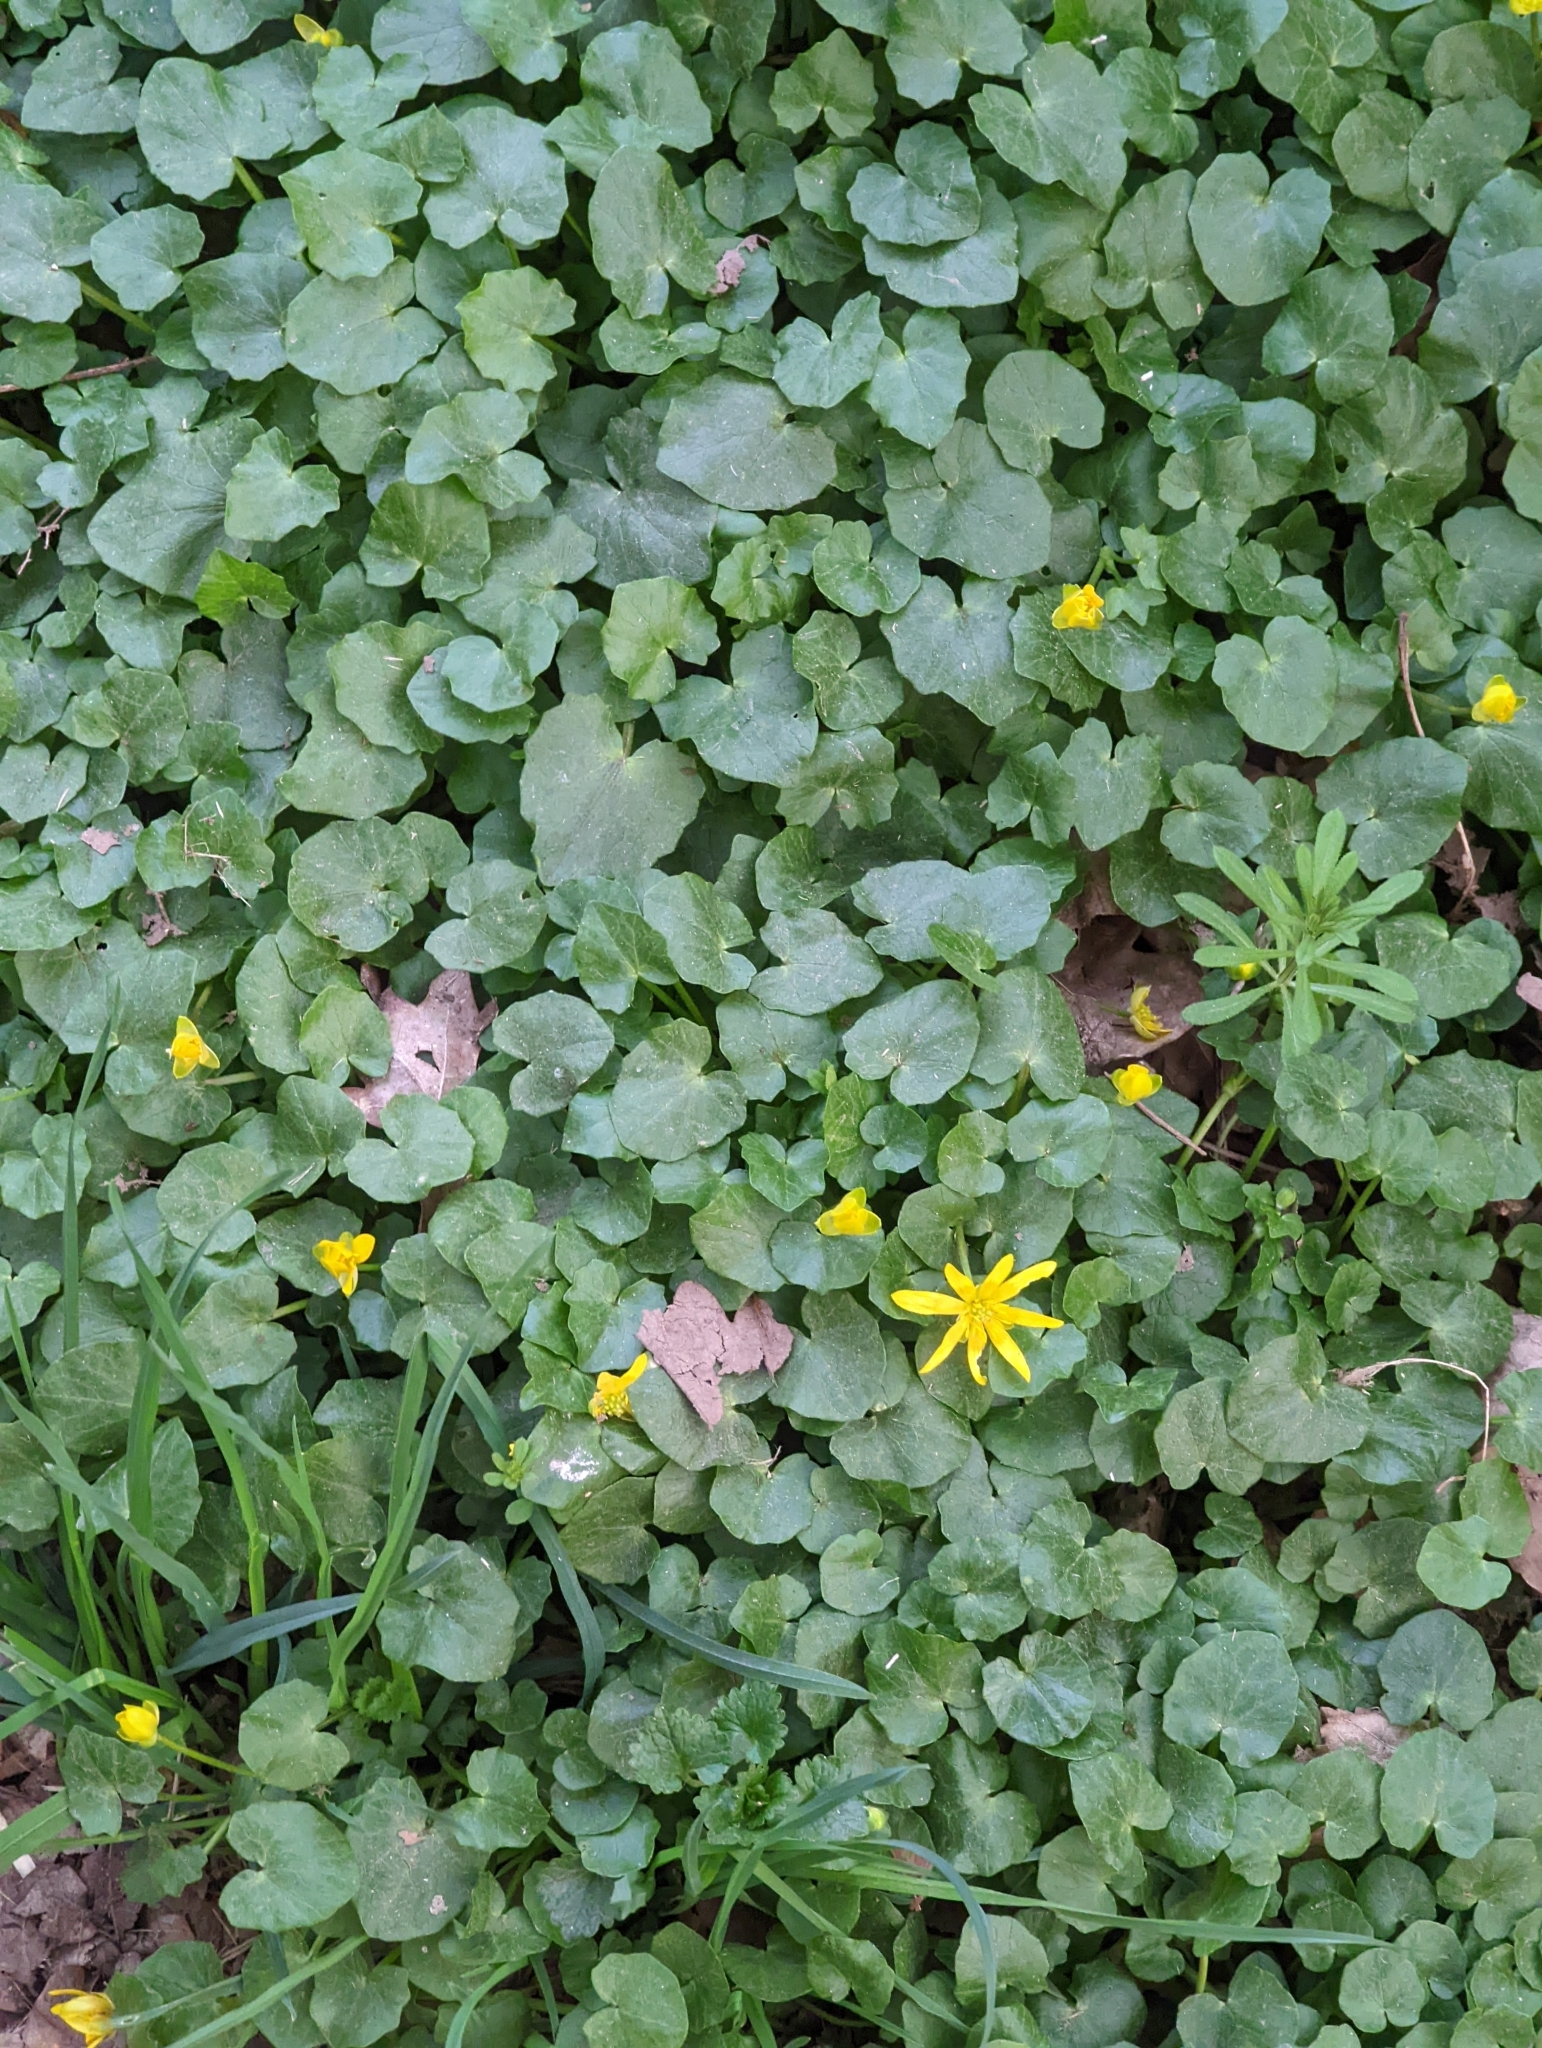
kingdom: Plantae
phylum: Tracheophyta
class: Magnoliopsida
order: Ranunculales
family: Ranunculaceae
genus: Ficaria
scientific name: Ficaria verna
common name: Lesser celandine
